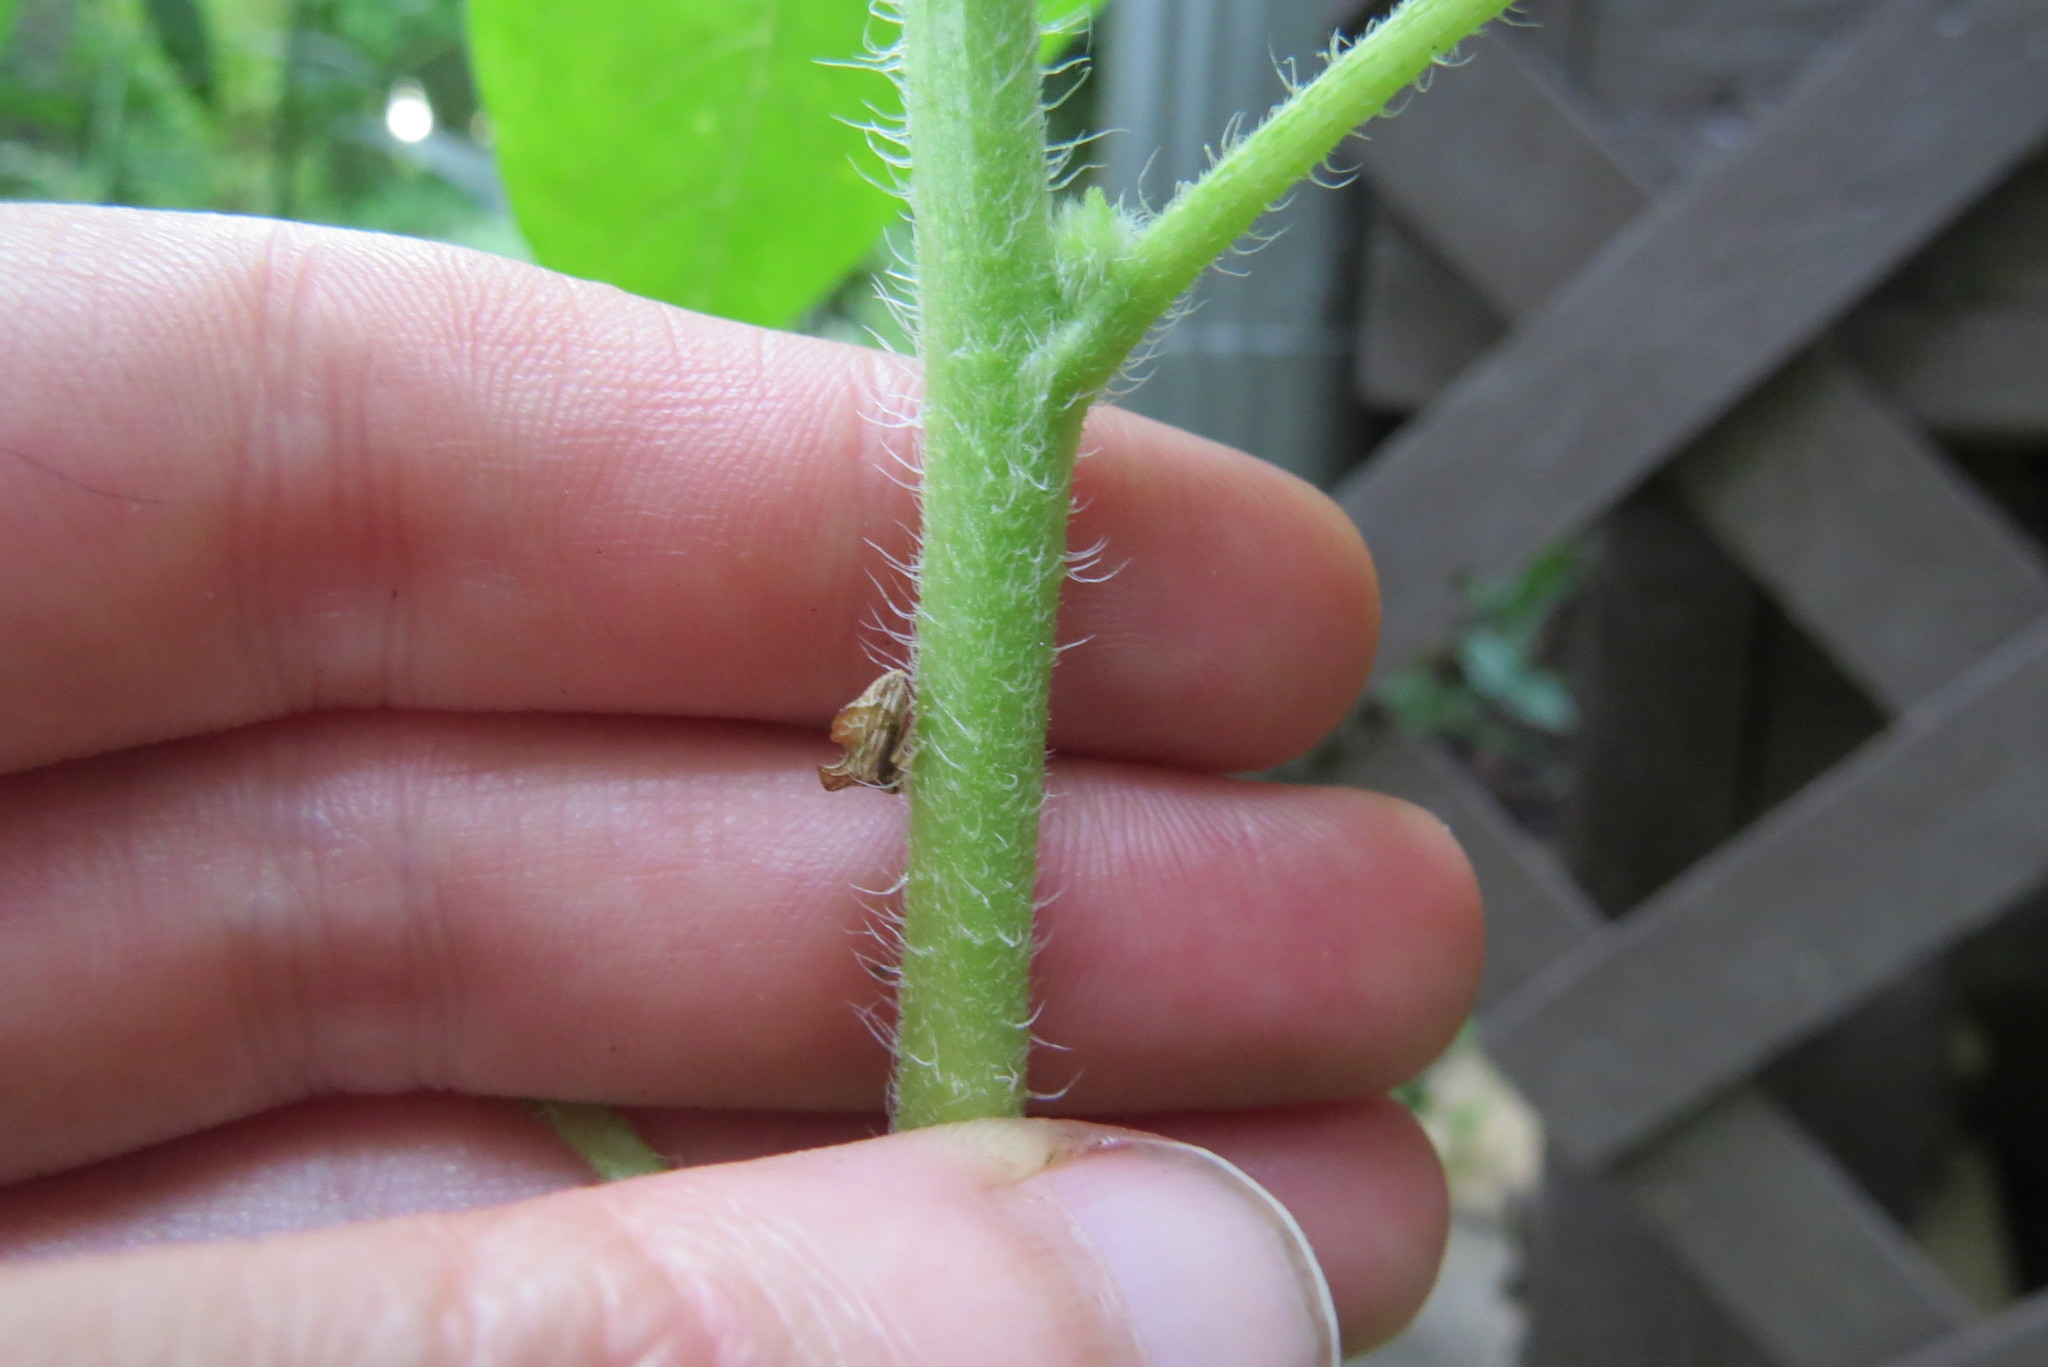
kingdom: Animalia
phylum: Arthropoda
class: Insecta
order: Hemiptera
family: Membracidae
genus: Entylia
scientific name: Entylia carinata
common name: Keeled treehopper
